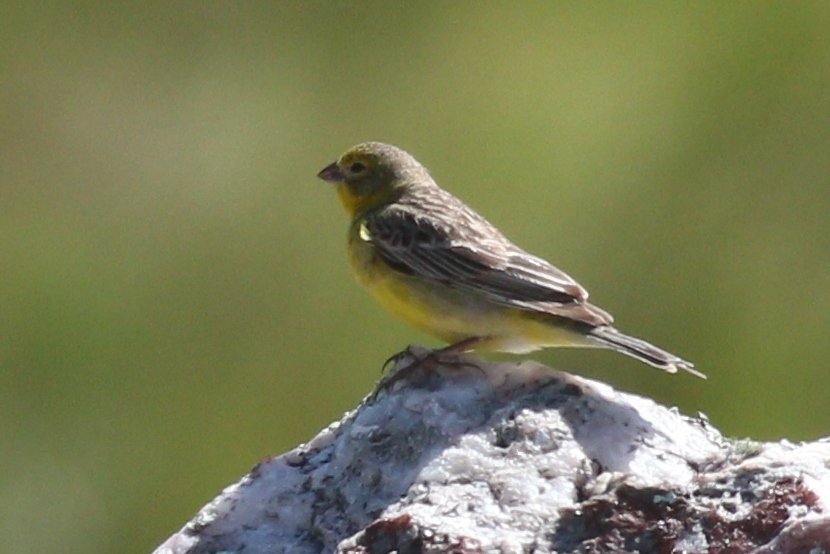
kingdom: Animalia
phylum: Chordata
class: Aves
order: Passeriformes
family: Thraupidae
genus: Sicalis
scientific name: Sicalis luteola
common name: Grassland yellow-finch
